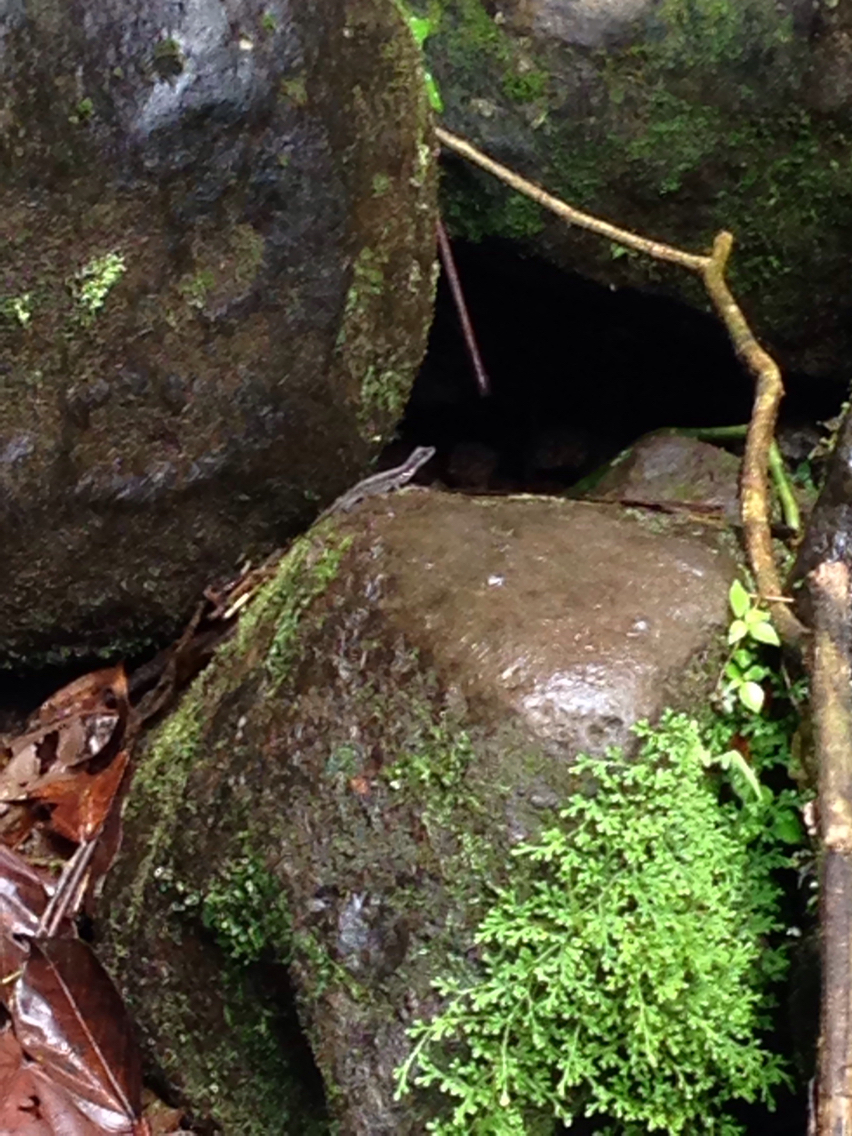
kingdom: Animalia
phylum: Chordata
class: Squamata
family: Dactyloidae
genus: Anolis
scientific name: Anolis oxylophus
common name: Stream anole
